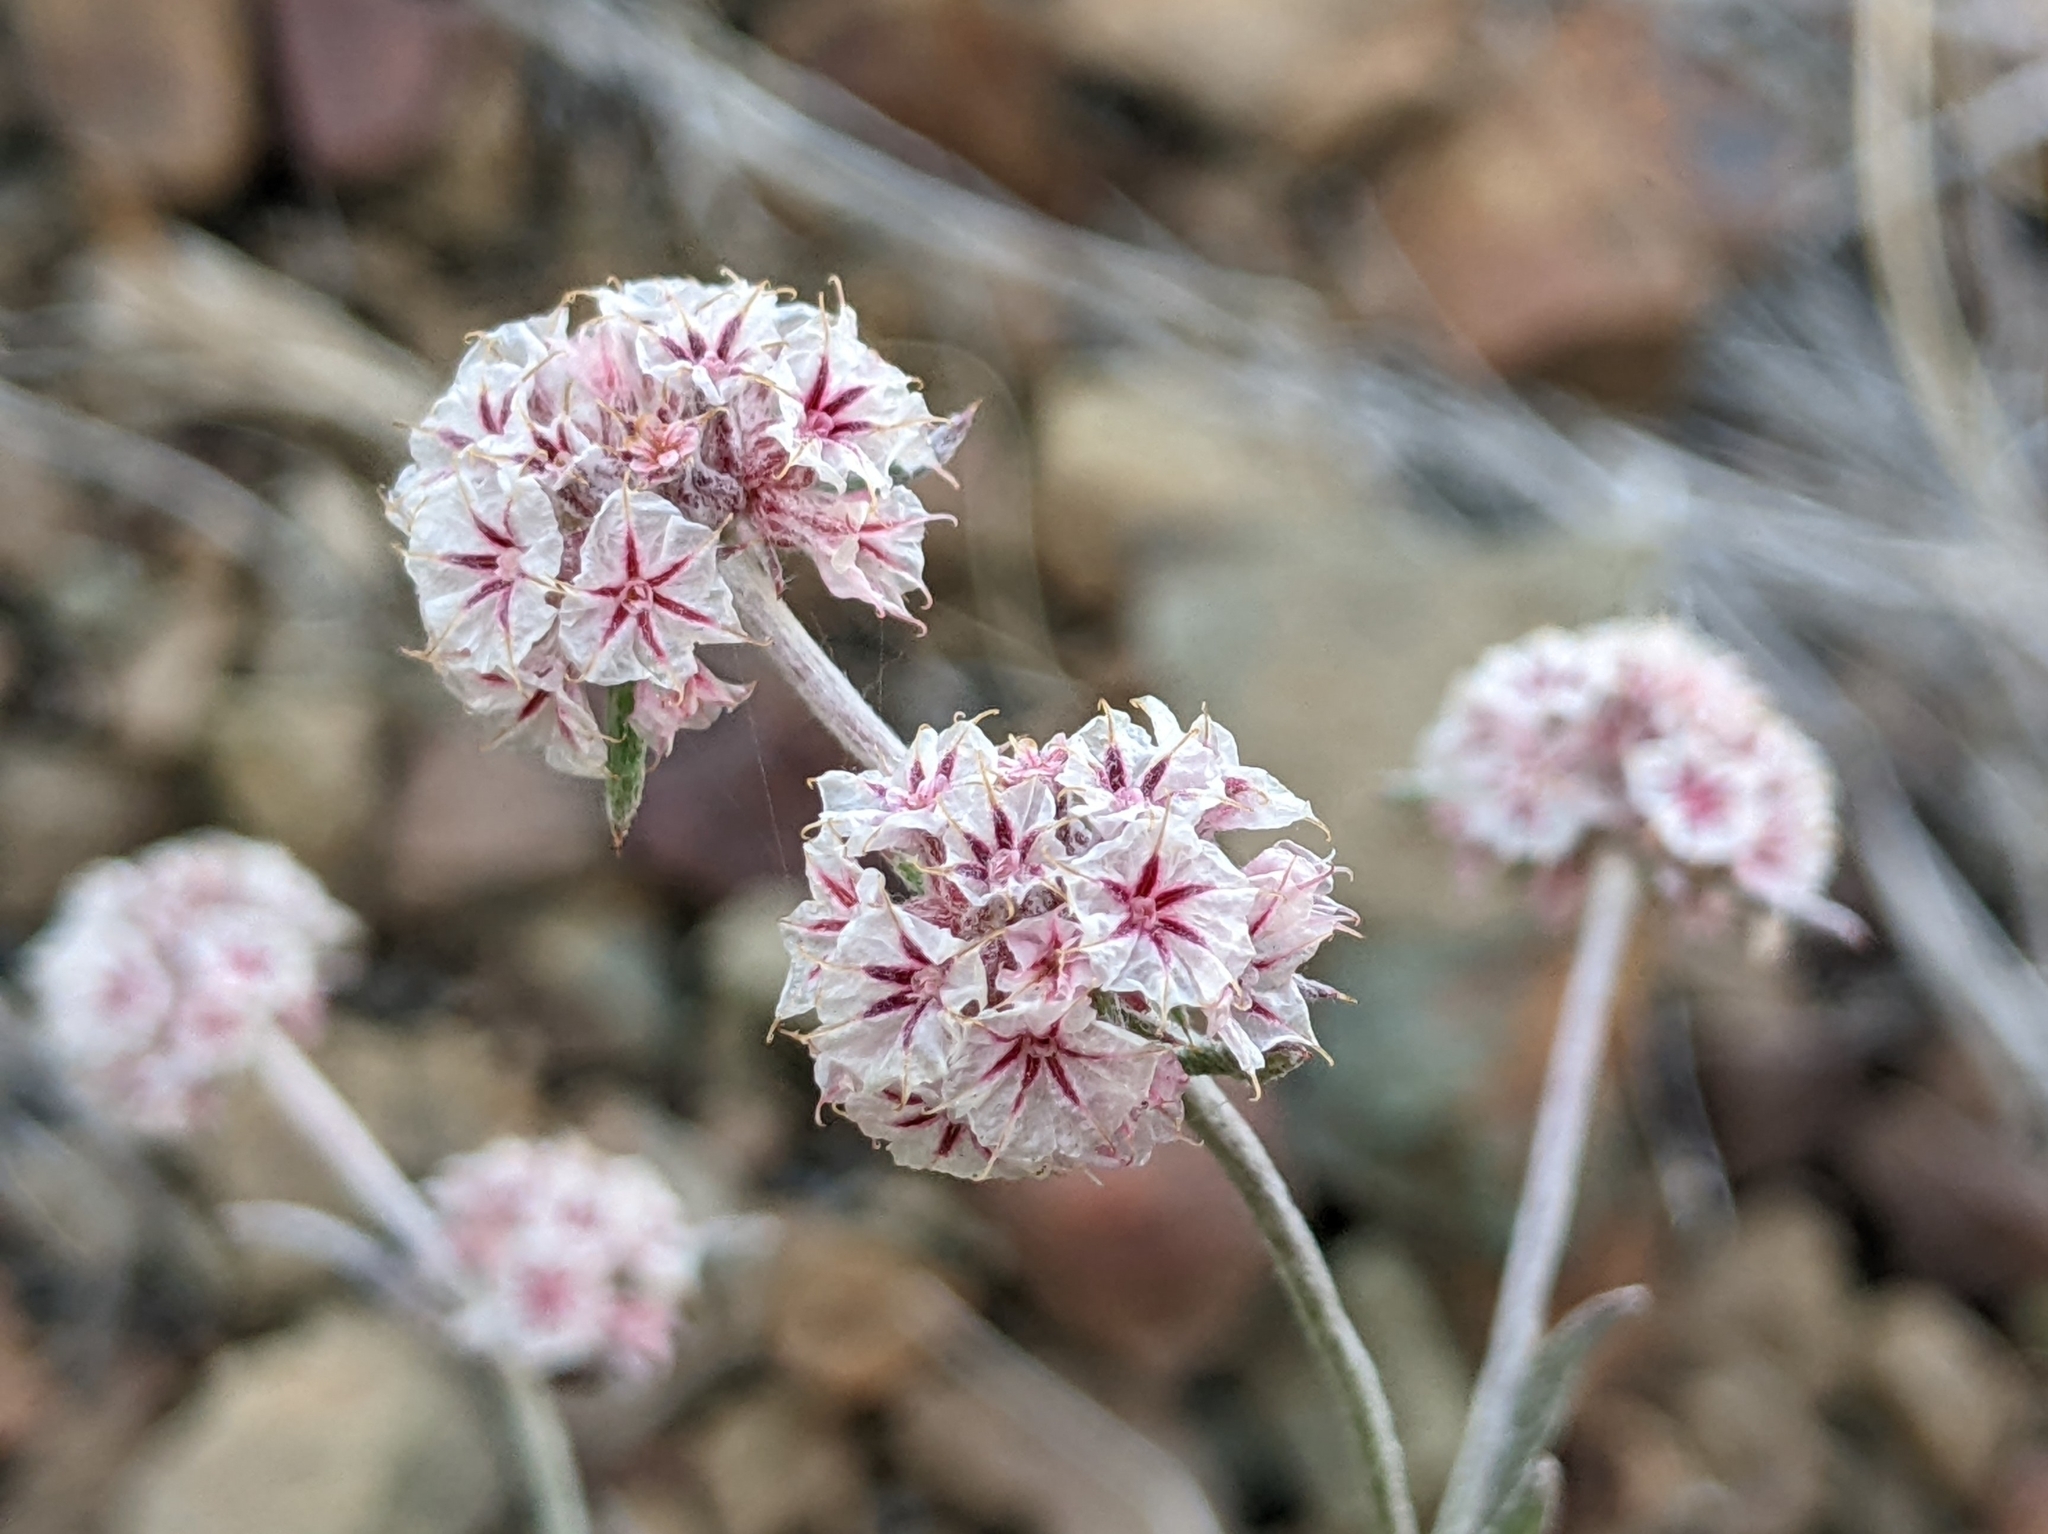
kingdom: Plantae
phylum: Tracheophyta
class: Magnoliopsida
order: Caryophyllales
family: Polygonaceae
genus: Chorizanthe
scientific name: Chorizanthe membranacea
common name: Pink spineflower
